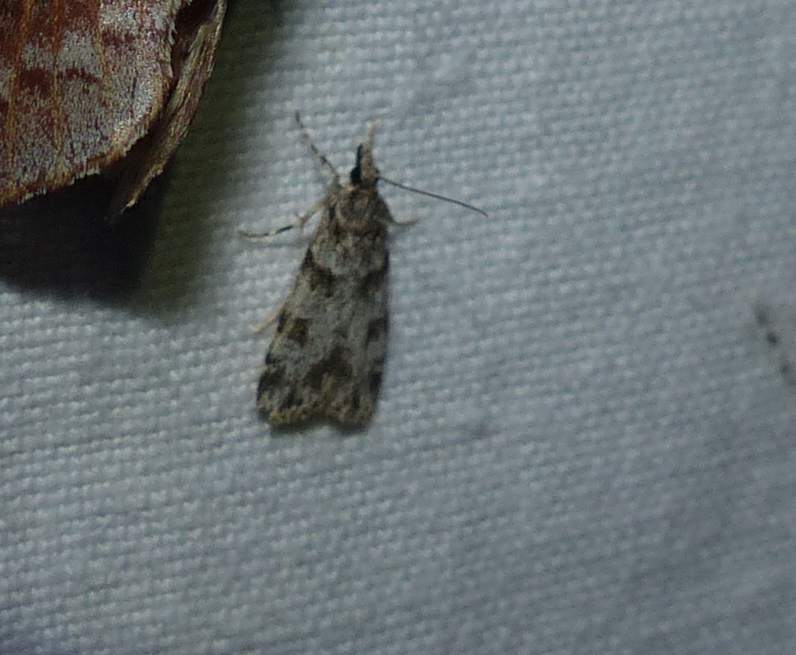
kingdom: Animalia
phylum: Arthropoda
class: Insecta
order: Lepidoptera
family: Crambidae
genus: Scoparia
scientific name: Scoparia biplagialis
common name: Double-striped scoparia moth
